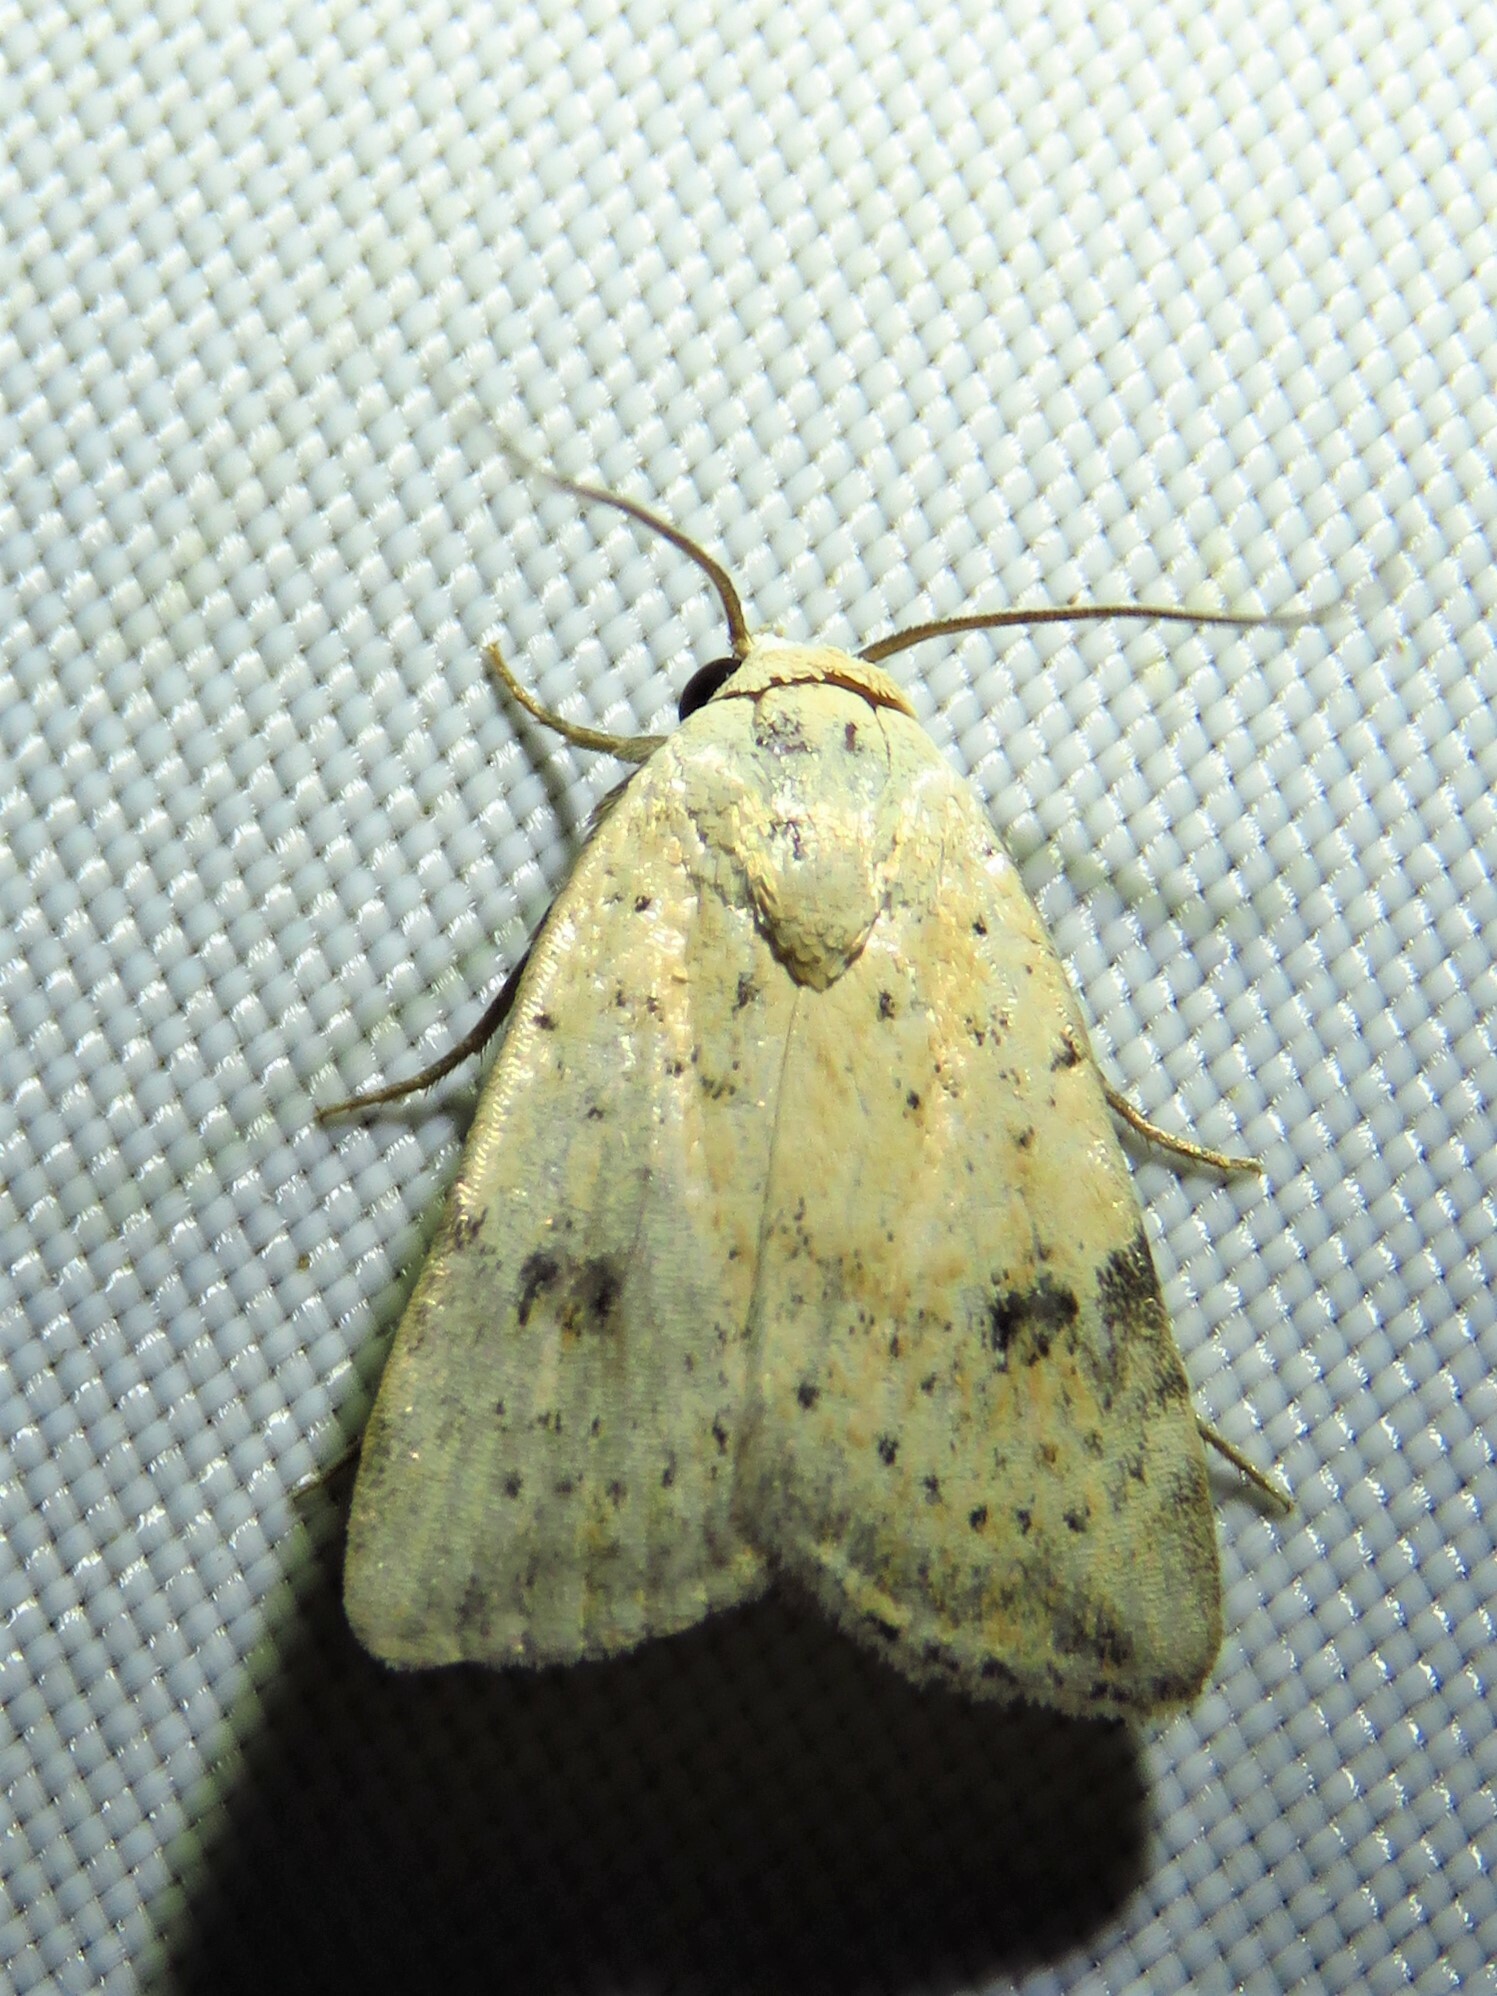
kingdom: Animalia
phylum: Arthropoda
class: Insecta
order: Lepidoptera
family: Noctuidae
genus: Micrathetis
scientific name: Micrathetis triplex
